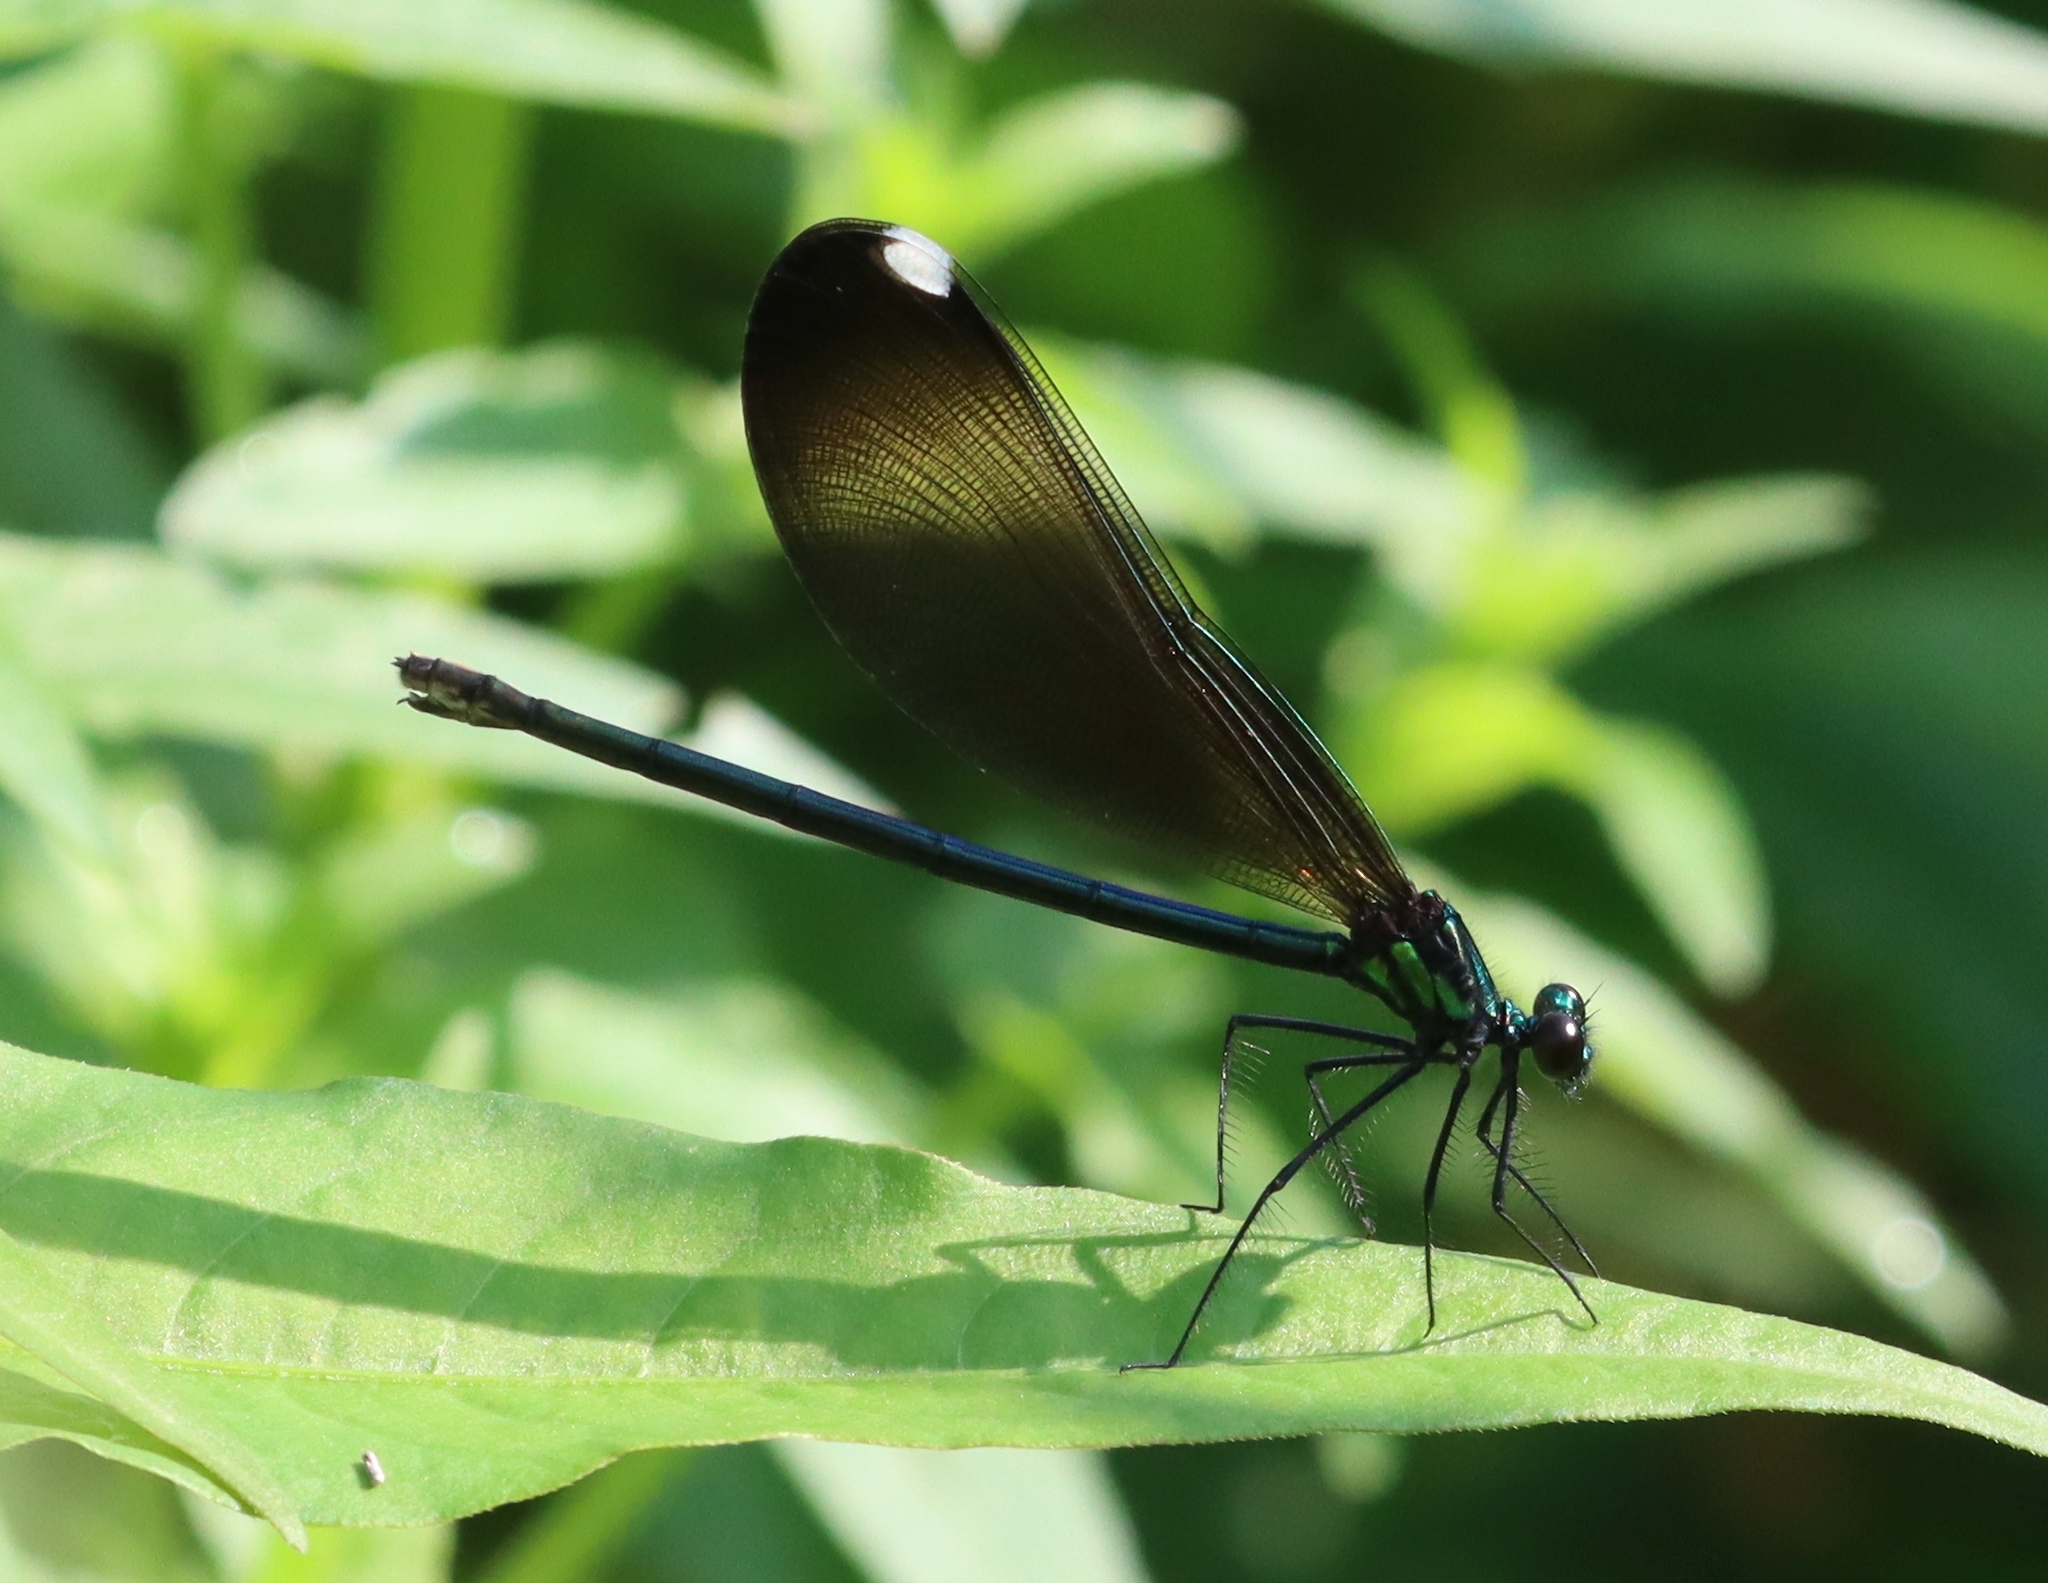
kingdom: Animalia
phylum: Arthropoda
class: Insecta
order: Odonata
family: Calopterygidae
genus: Calopteryx
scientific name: Calopteryx maculata
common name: Ebony jewelwing
